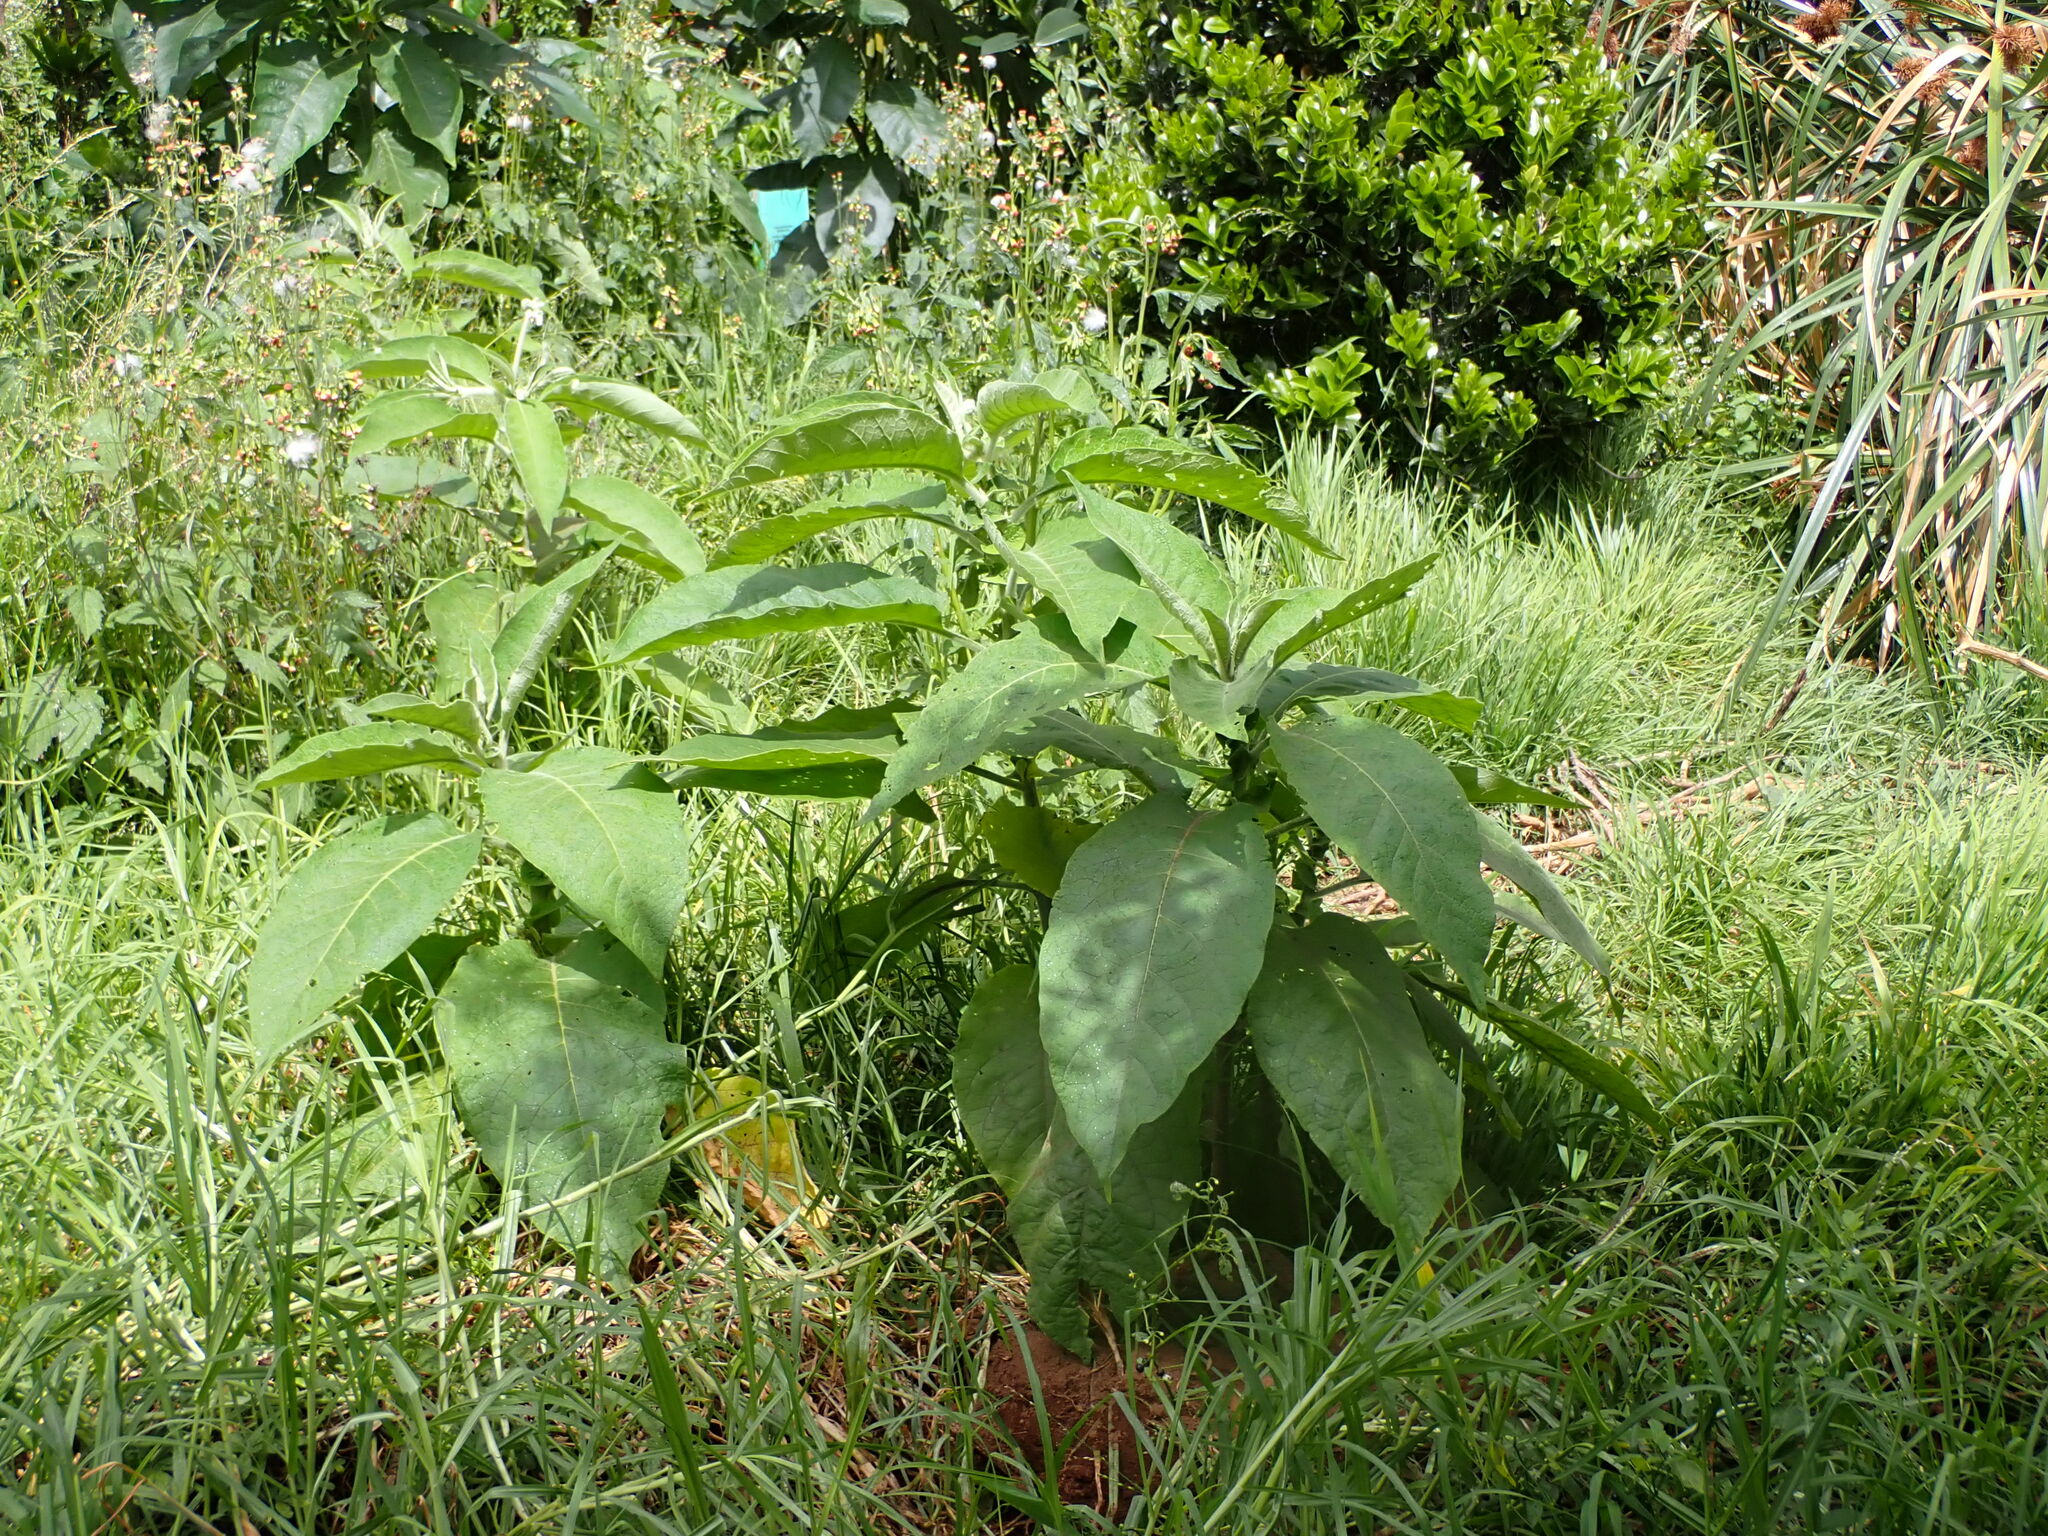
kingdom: Plantae
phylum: Tracheophyta
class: Magnoliopsida
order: Solanales
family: Solanaceae
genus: Solanum
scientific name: Solanum mauritianum
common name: Earleaf nightshade
